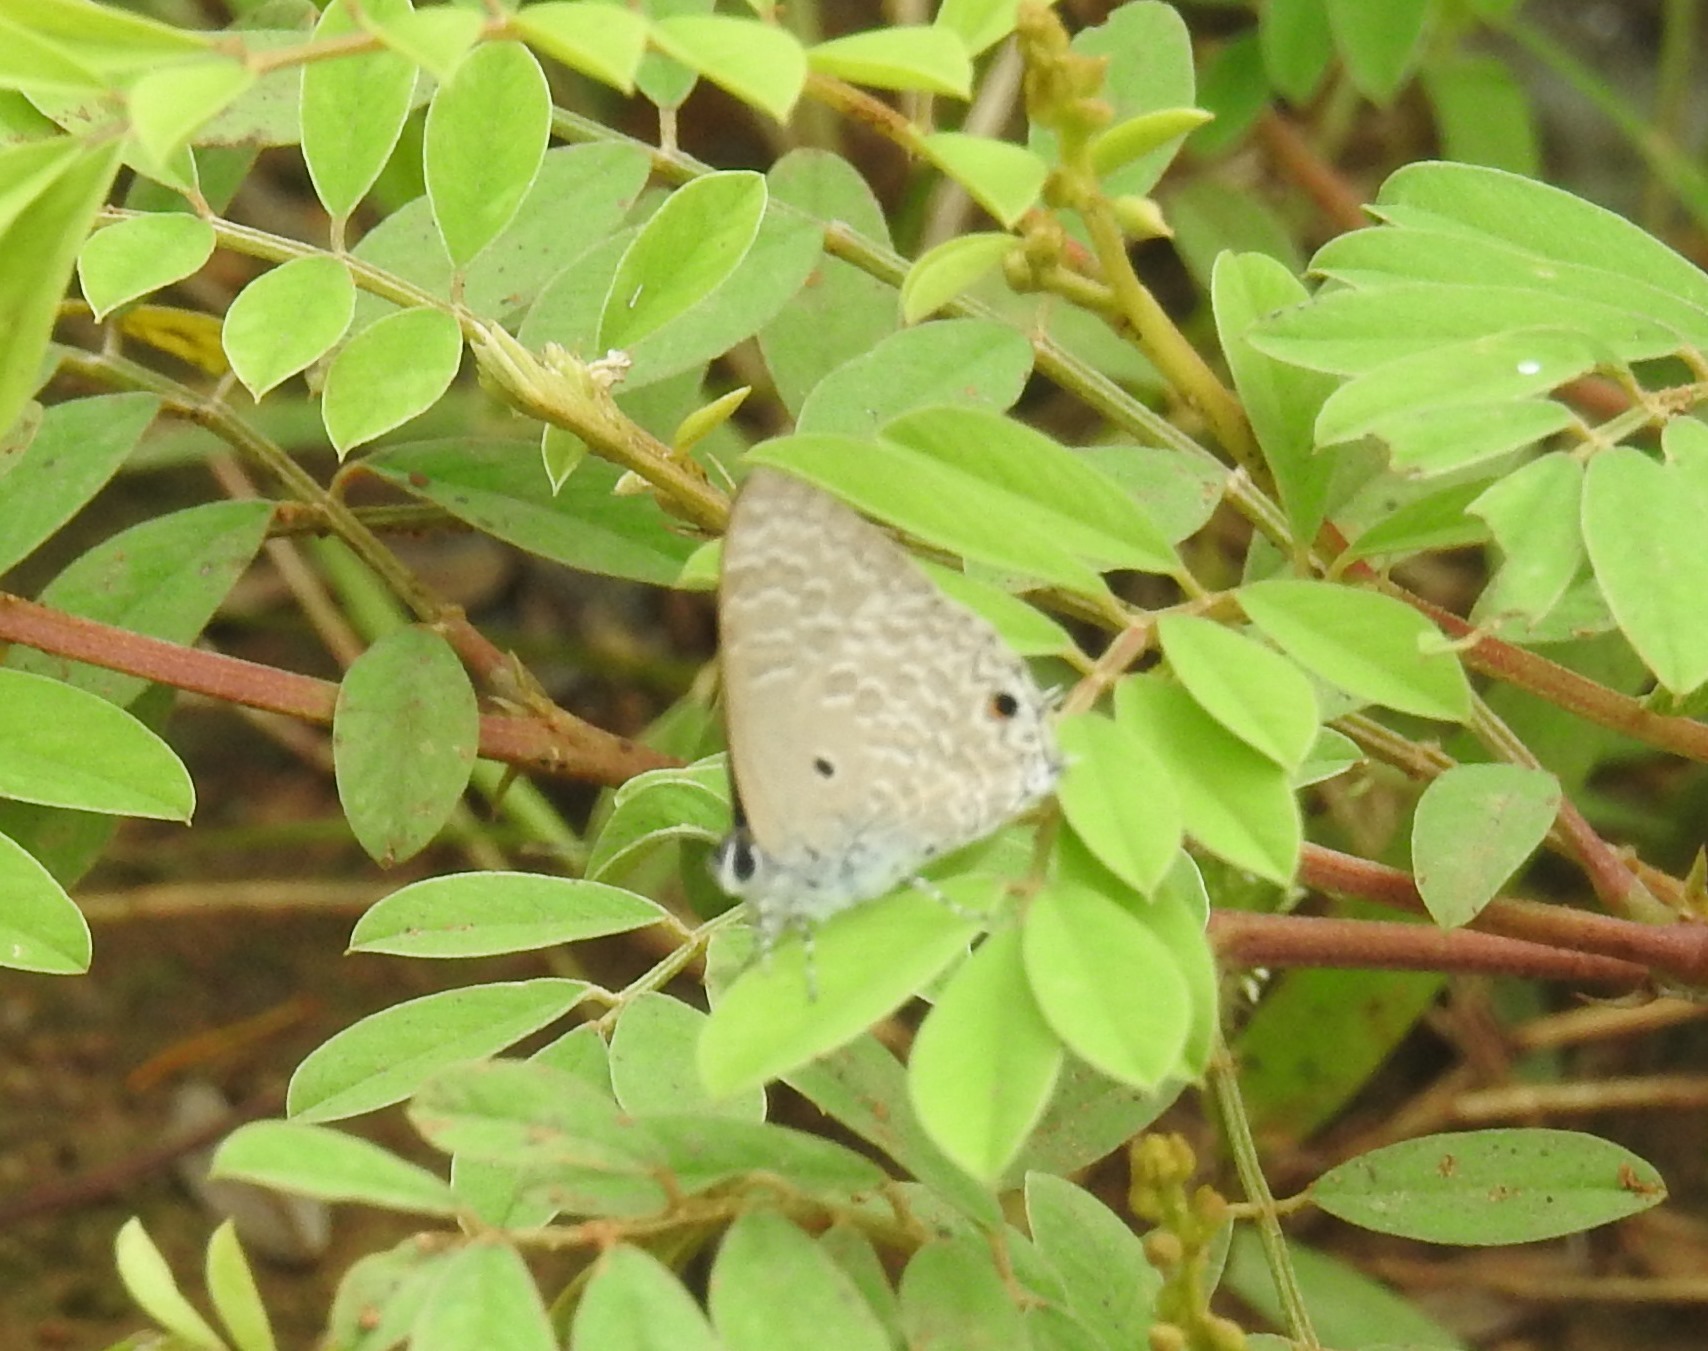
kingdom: Animalia
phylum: Arthropoda
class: Insecta
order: Lepidoptera
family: Lycaenidae
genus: Anthene
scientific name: Anthene lycaenina
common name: Pointed ciliate blue
